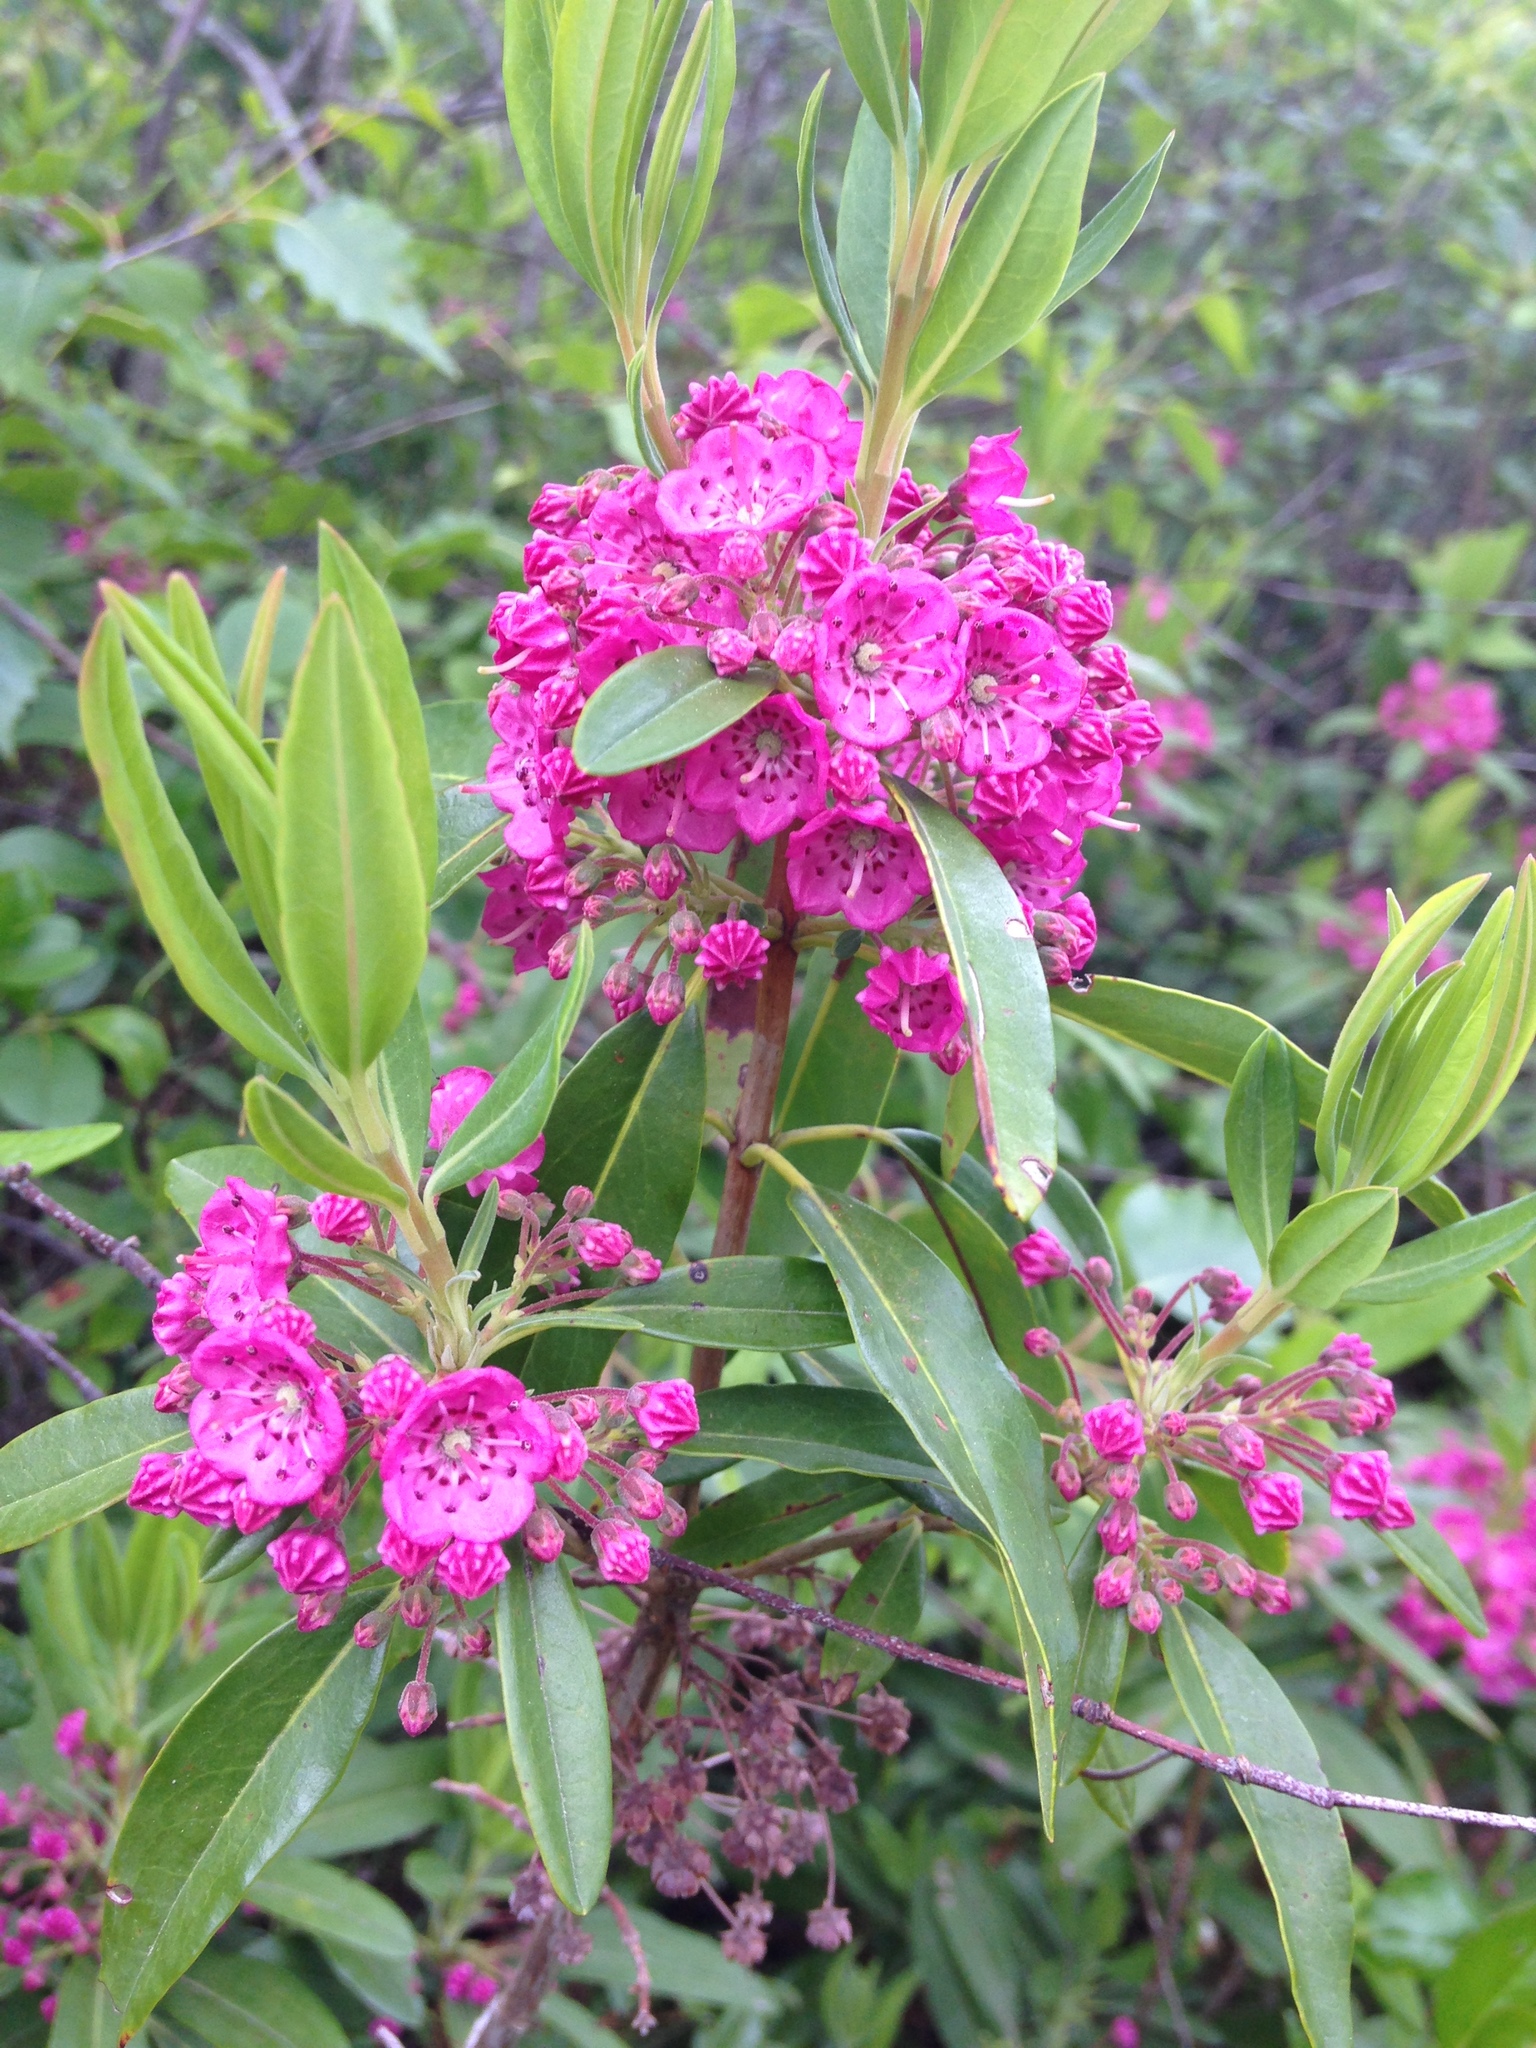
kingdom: Plantae
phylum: Tracheophyta
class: Magnoliopsida
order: Ericales
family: Ericaceae
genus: Kalmia
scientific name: Kalmia angustifolia
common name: Sheep-laurel
